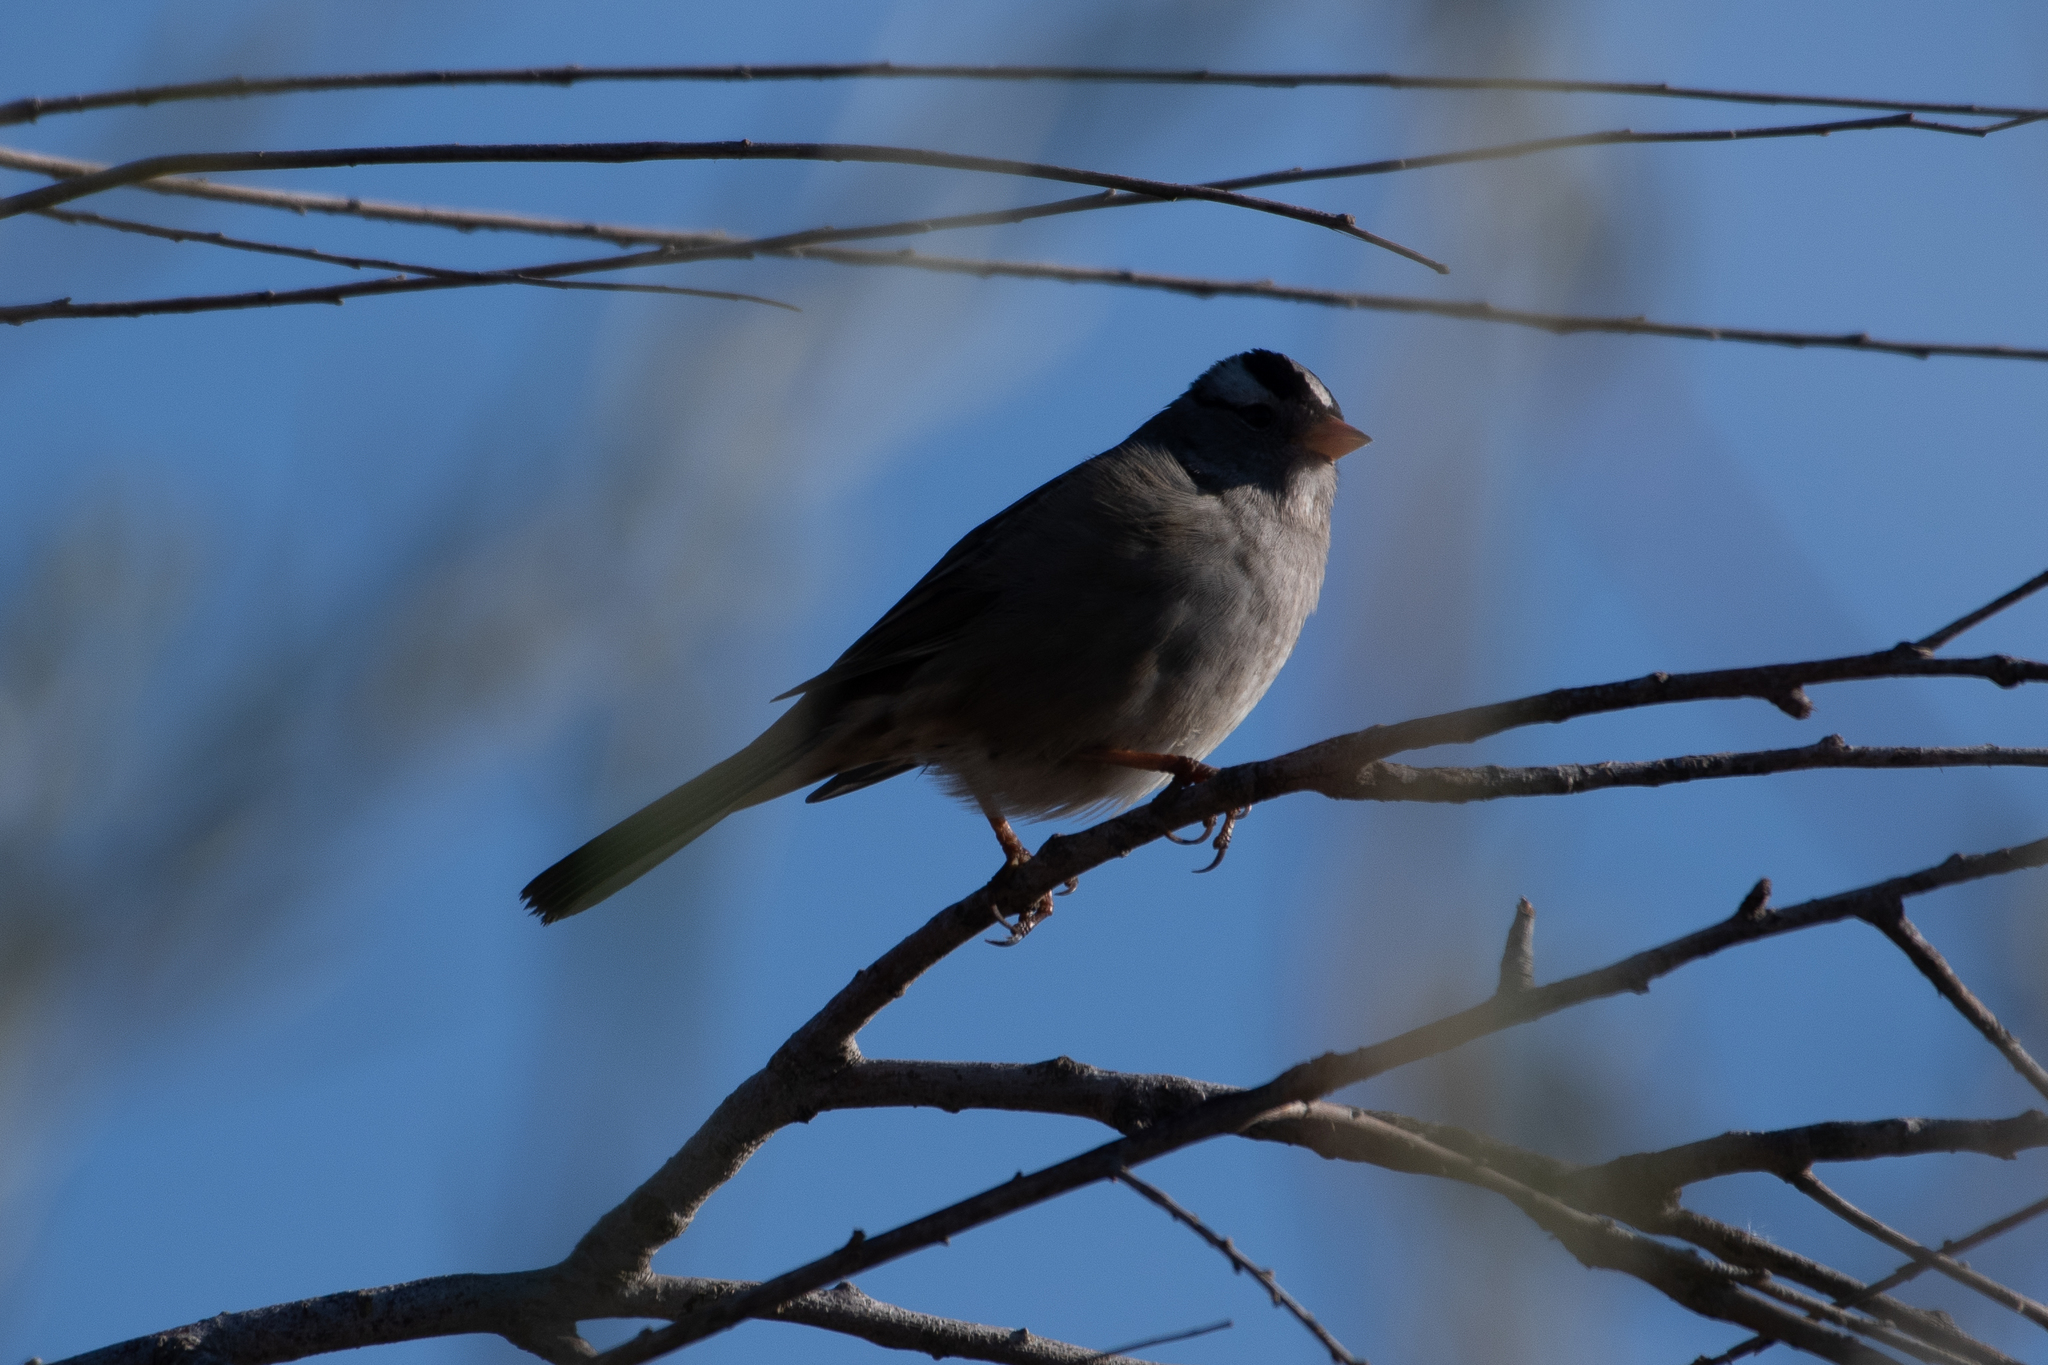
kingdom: Animalia
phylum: Chordata
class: Aves
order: Passeriformes
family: Passerellidae
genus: Zonotrichia
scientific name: Zonotrichia leucophrys
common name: White-crowned sparrow
